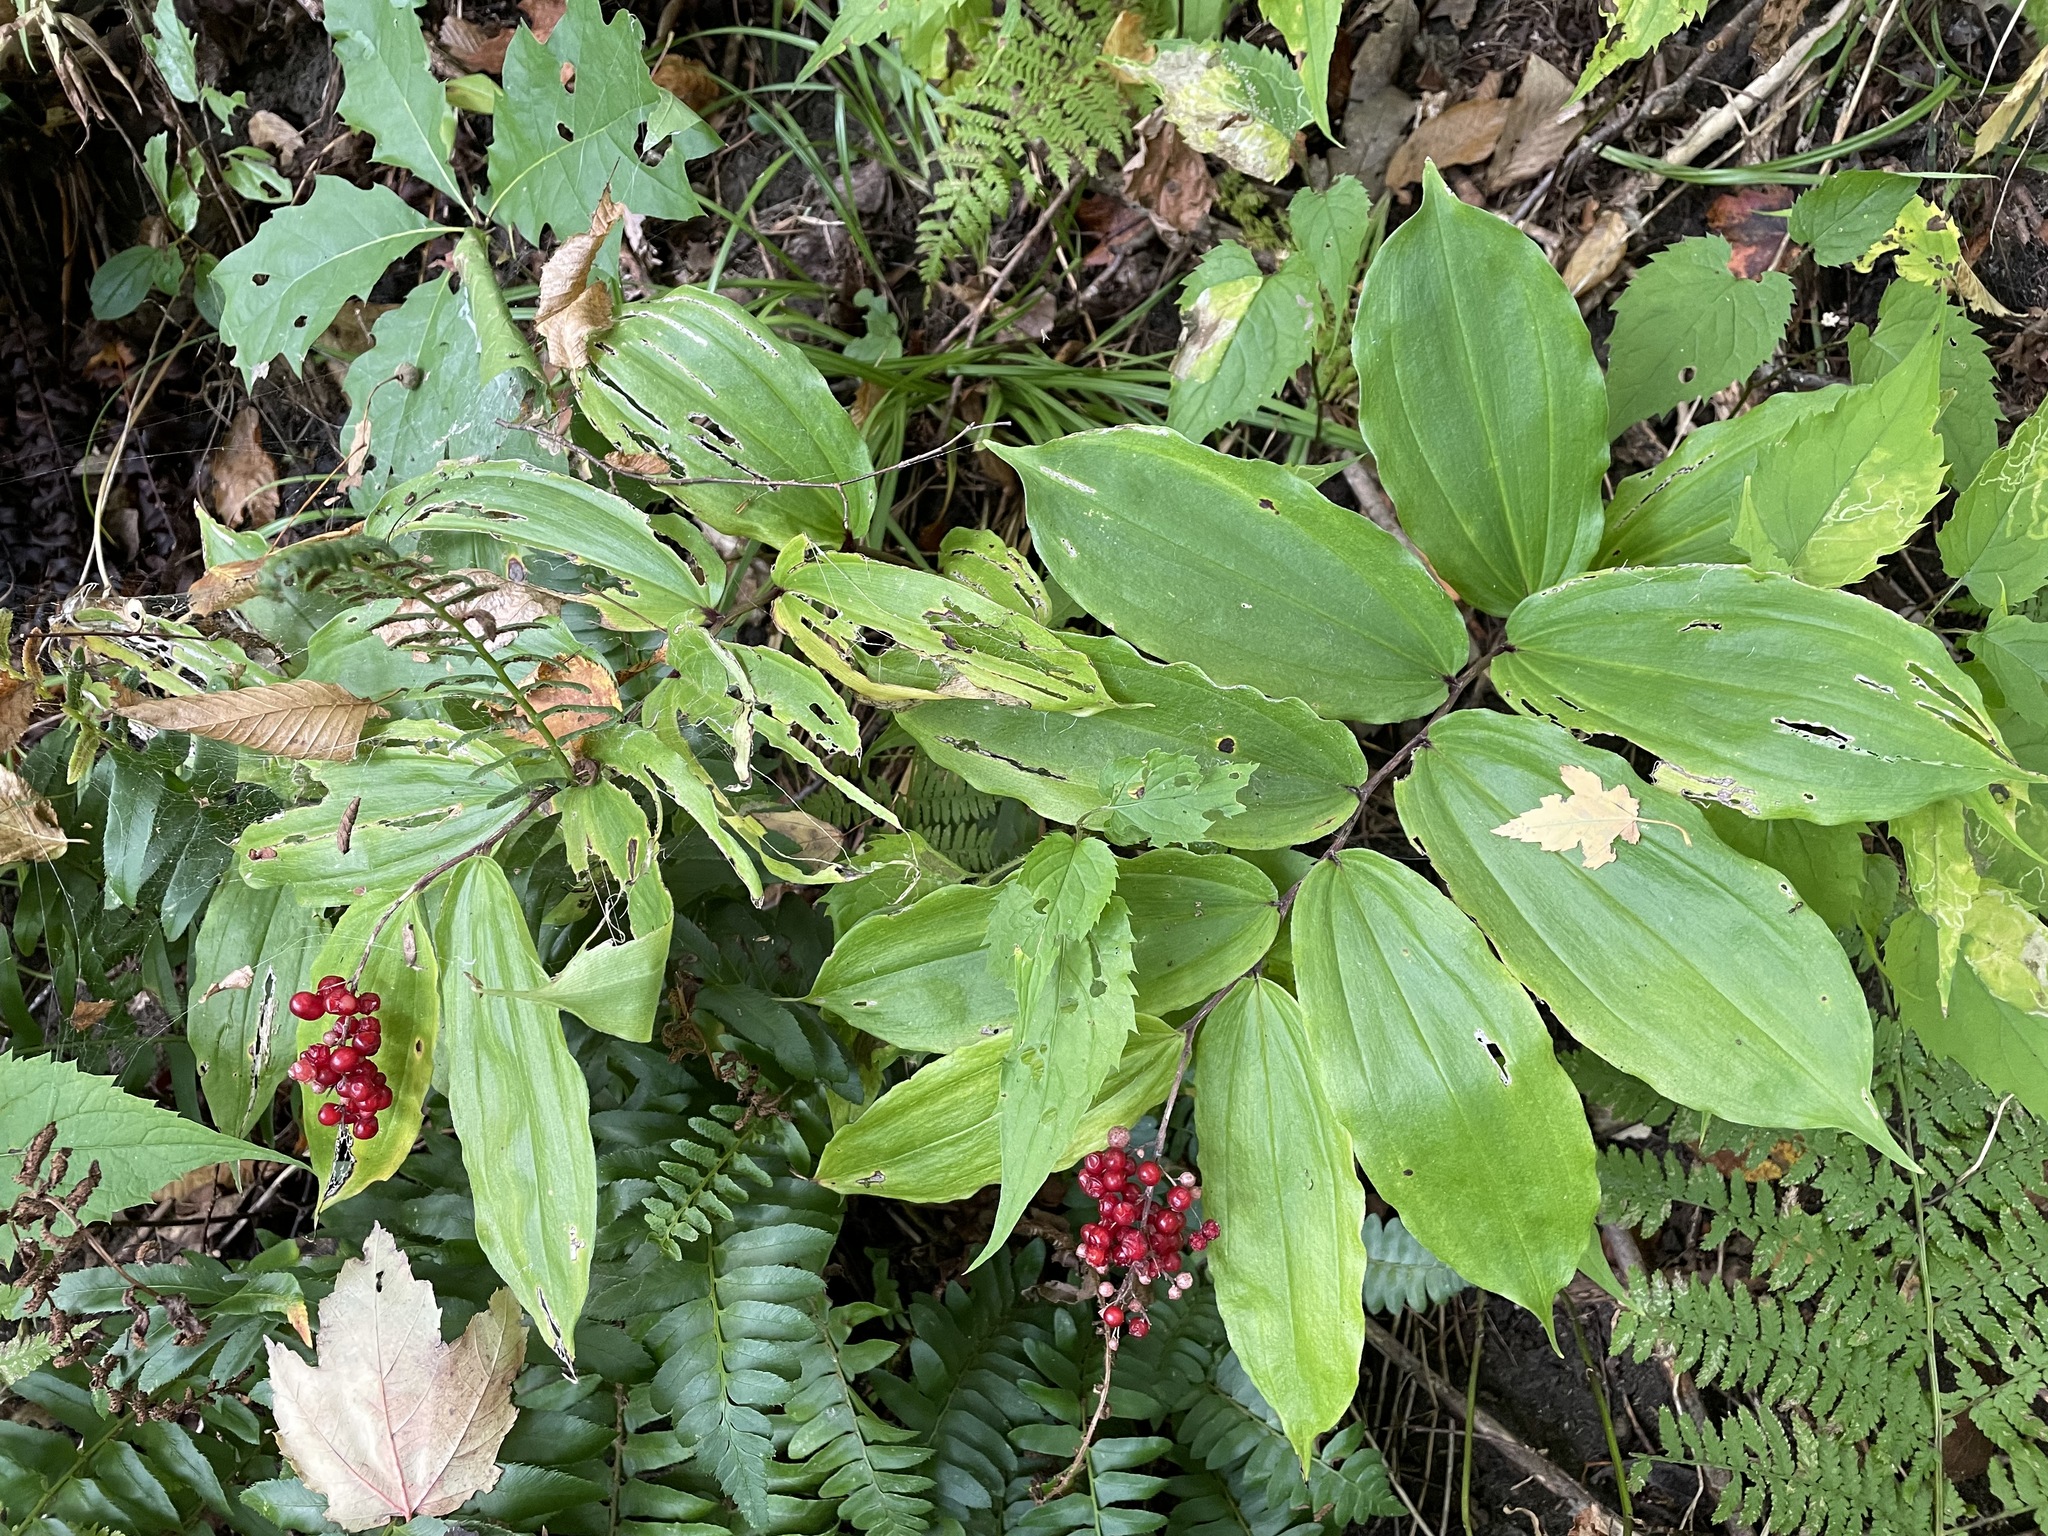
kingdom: Plantae
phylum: Tracheophyta
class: Liliopsida
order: Asparagales
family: Asparagaceae
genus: Maianthemum
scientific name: Maianthemum racemosum
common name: False spikenard
